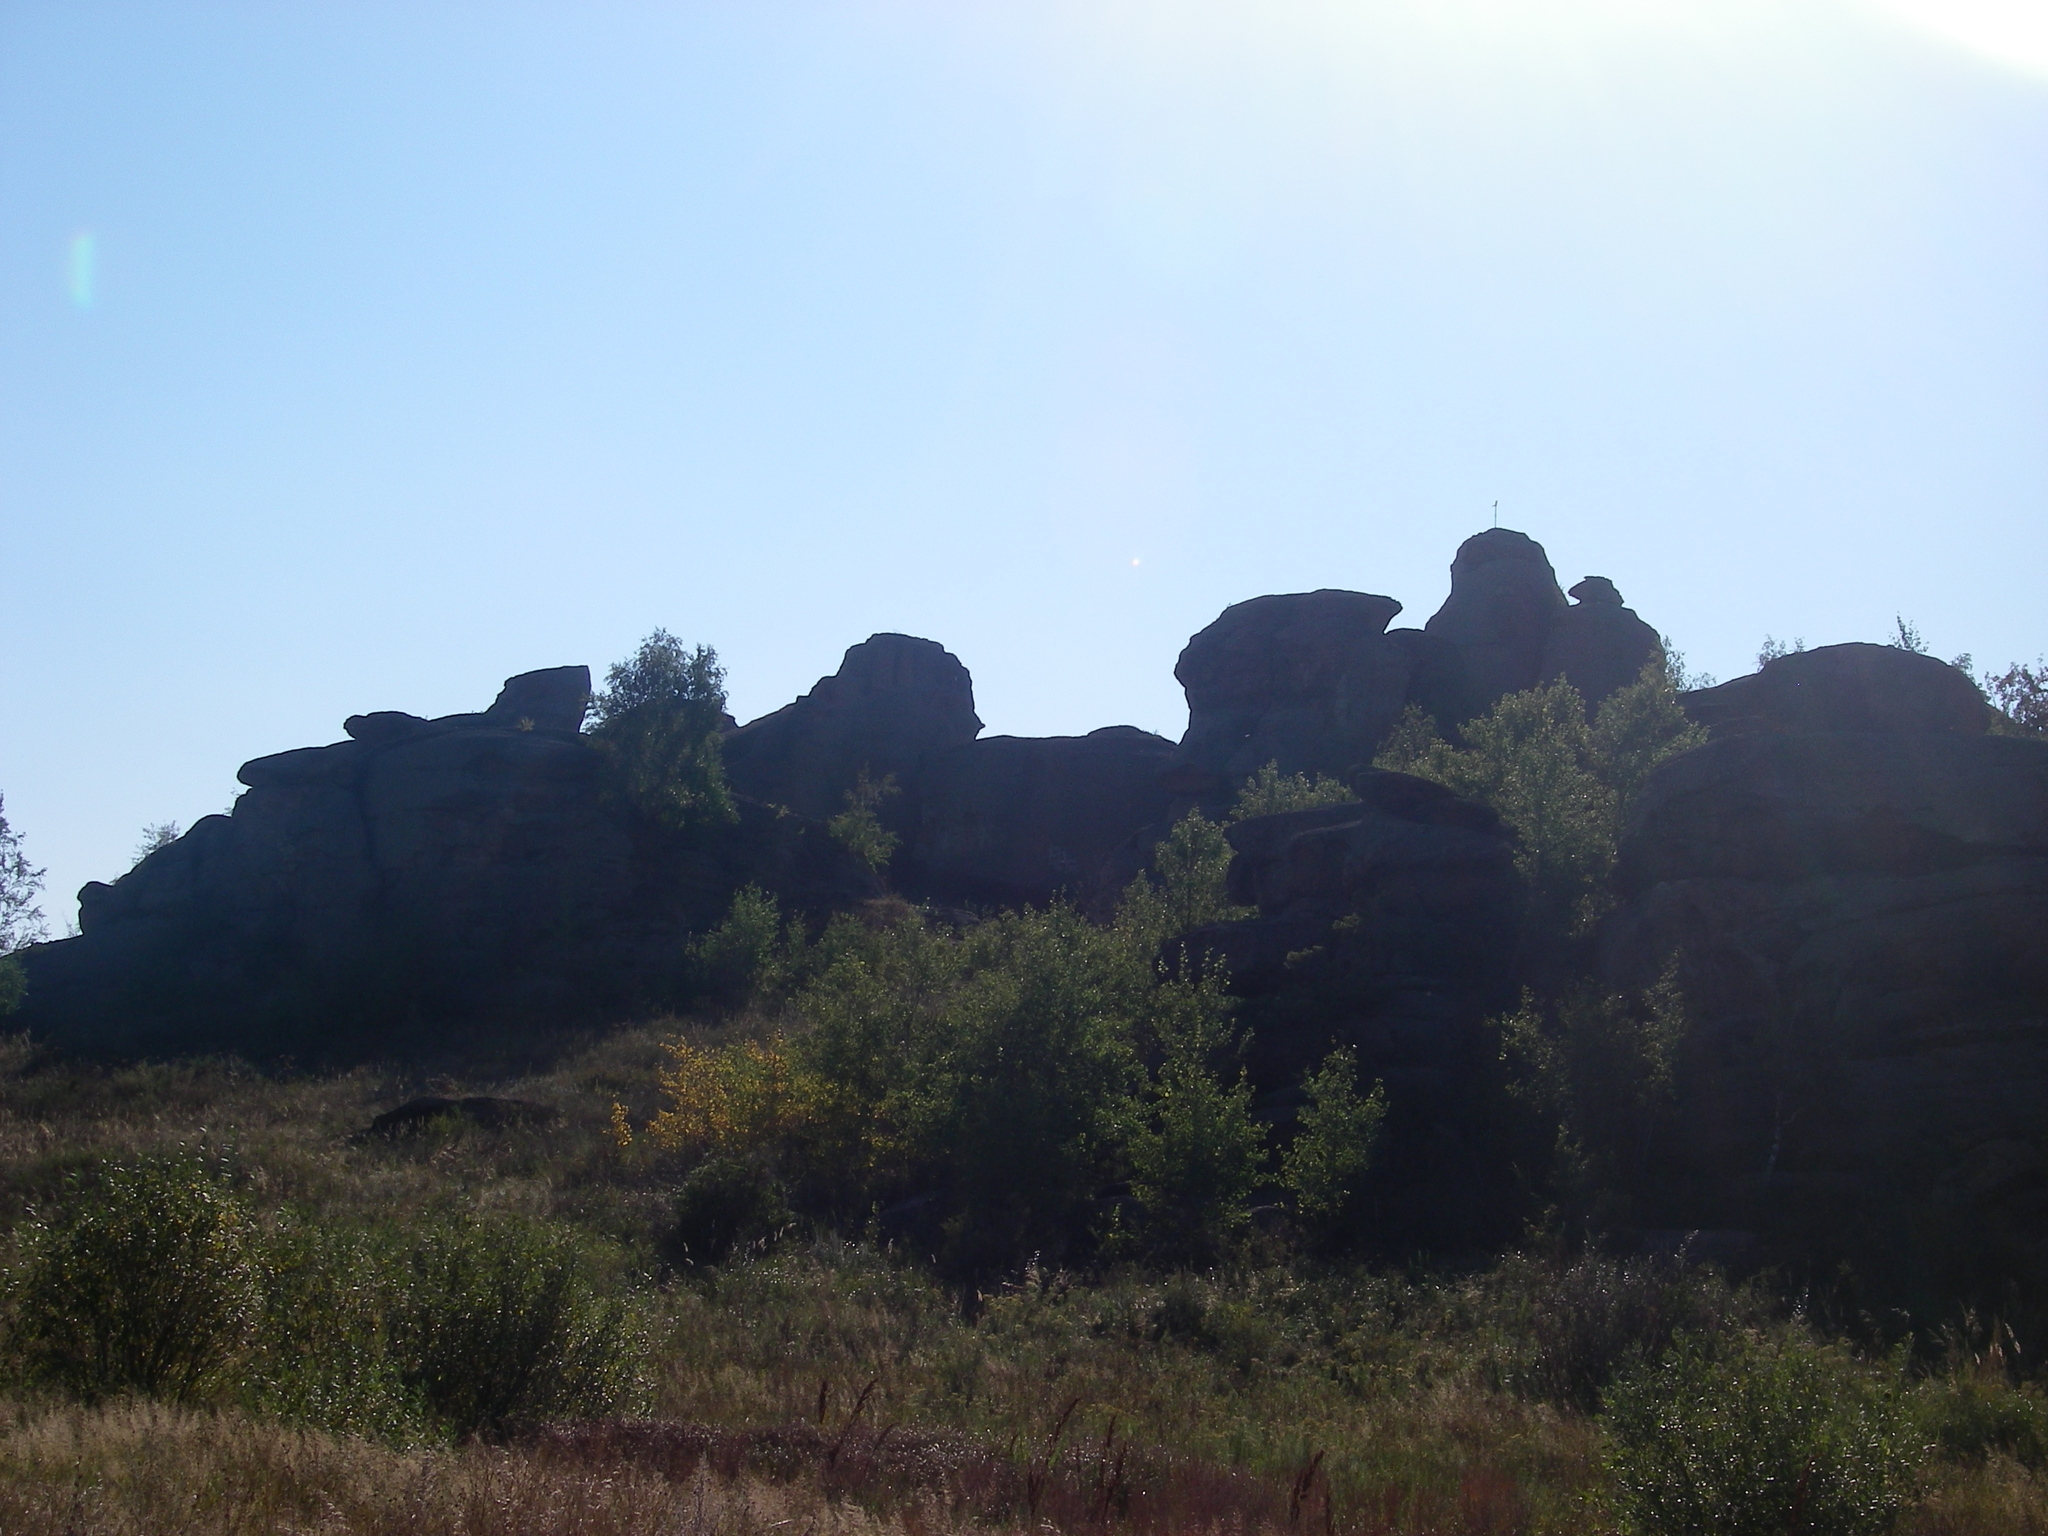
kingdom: Plantae
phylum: Tracheophyta
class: Magnoliopsida
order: Fagales
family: Betulaceae
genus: Betula
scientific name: Betula pendula
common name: Silver birch
